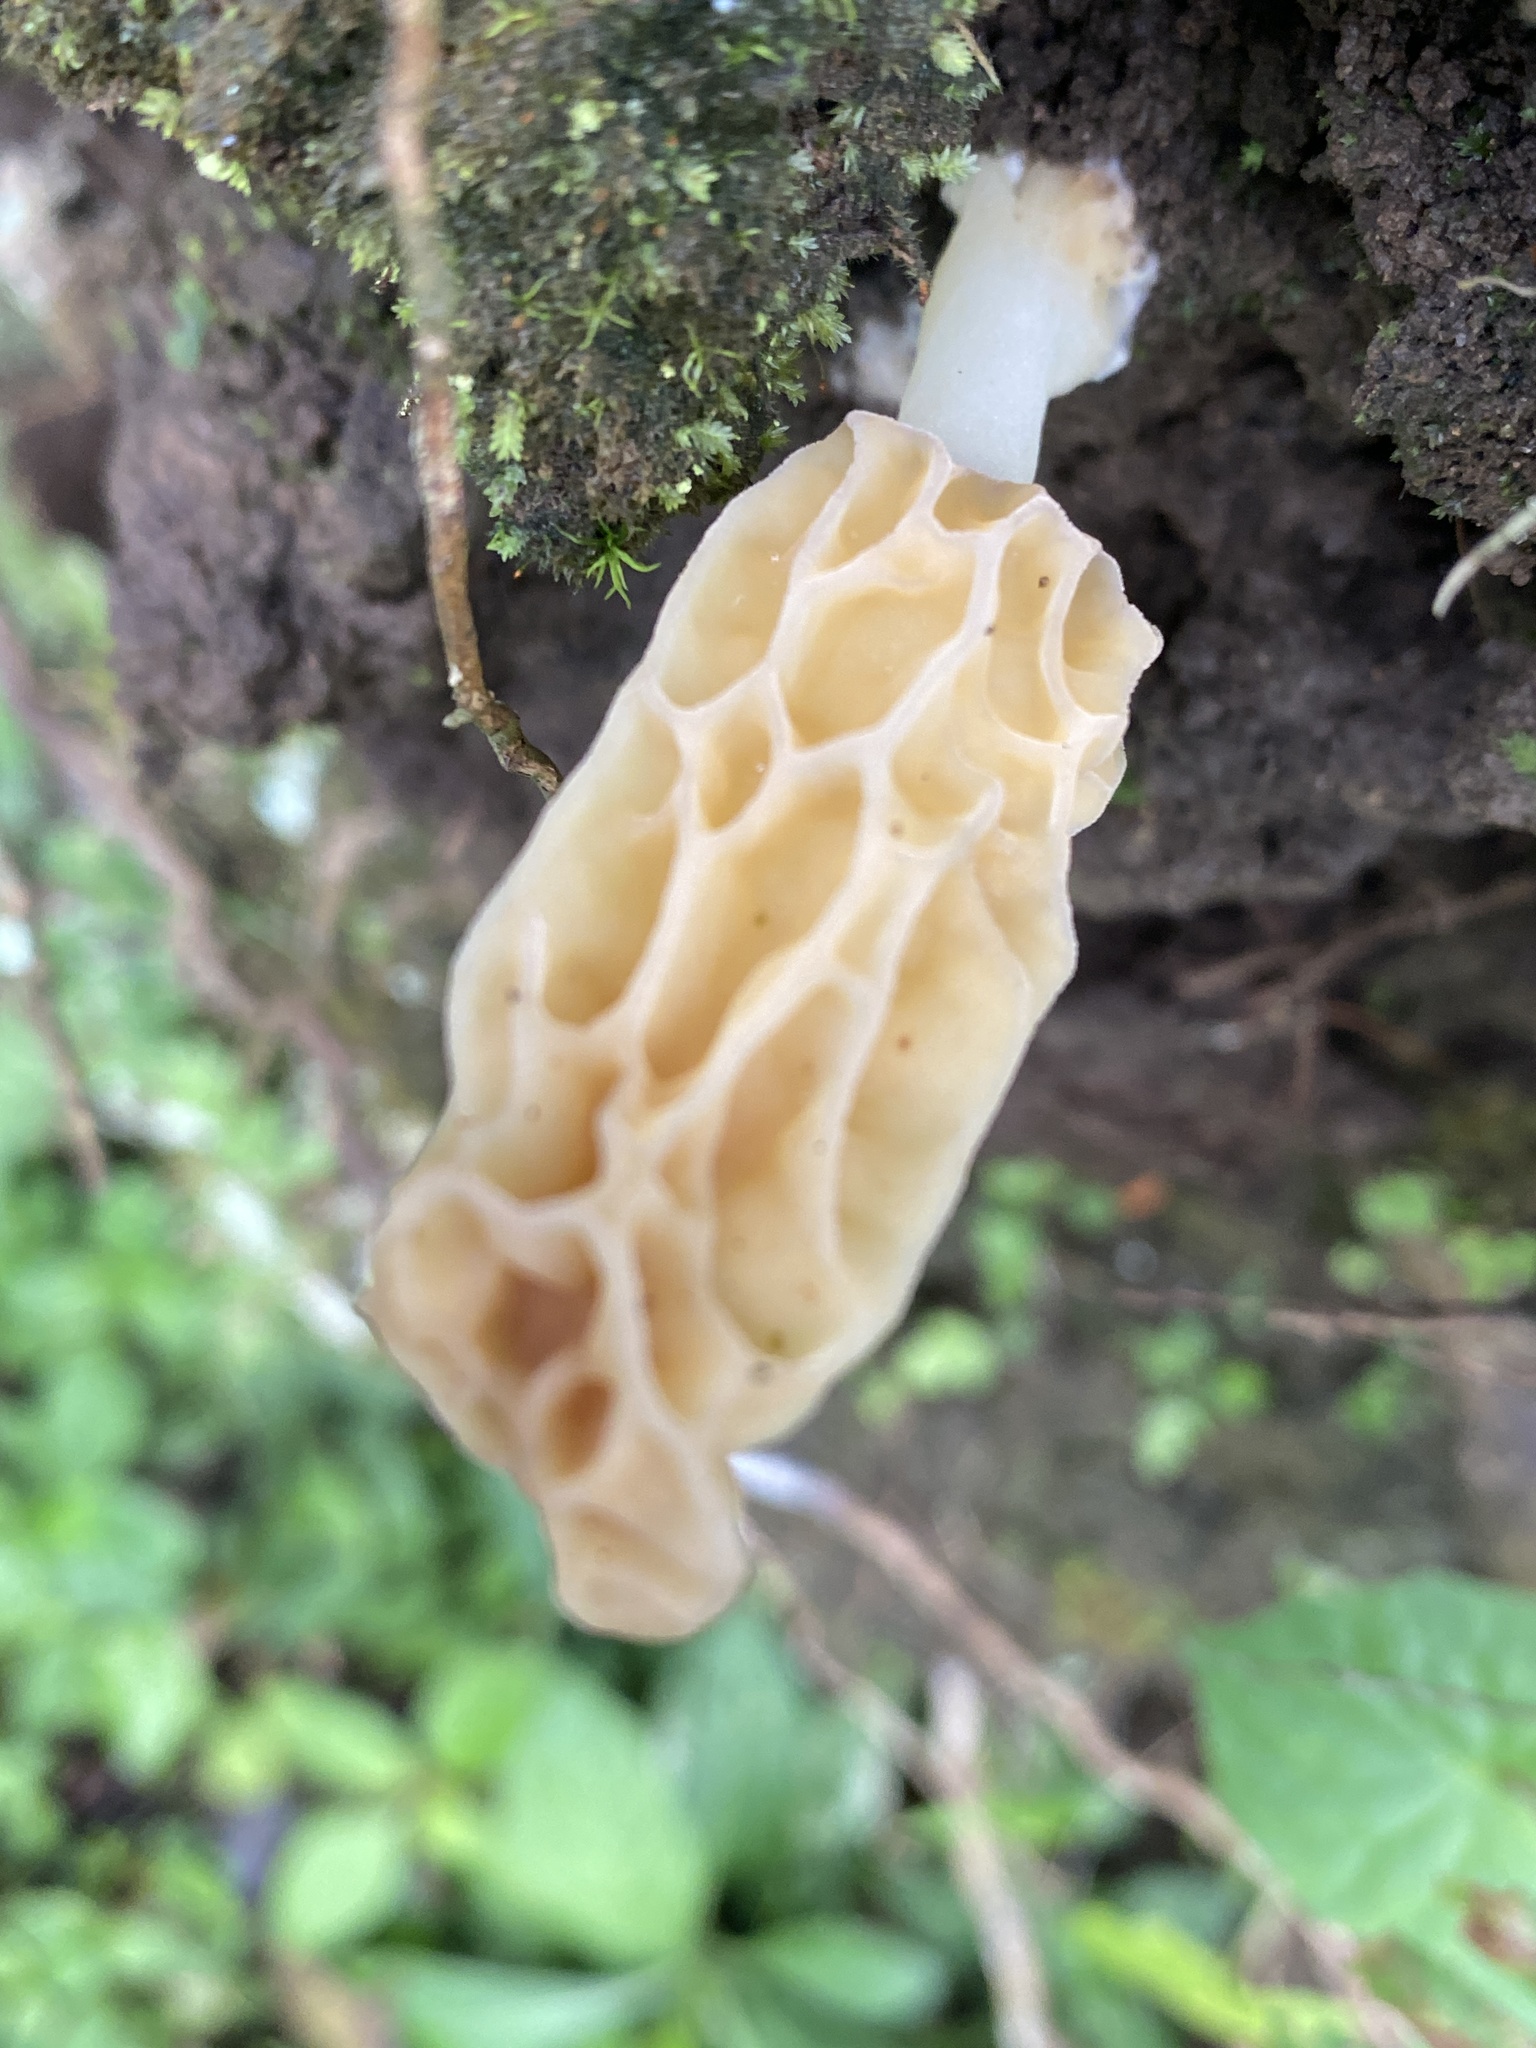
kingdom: Fungi
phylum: Ascomycota
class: Pezizomycetes
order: Pezizales
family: Morchellaceae
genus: Morchella
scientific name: Morchella herediana
